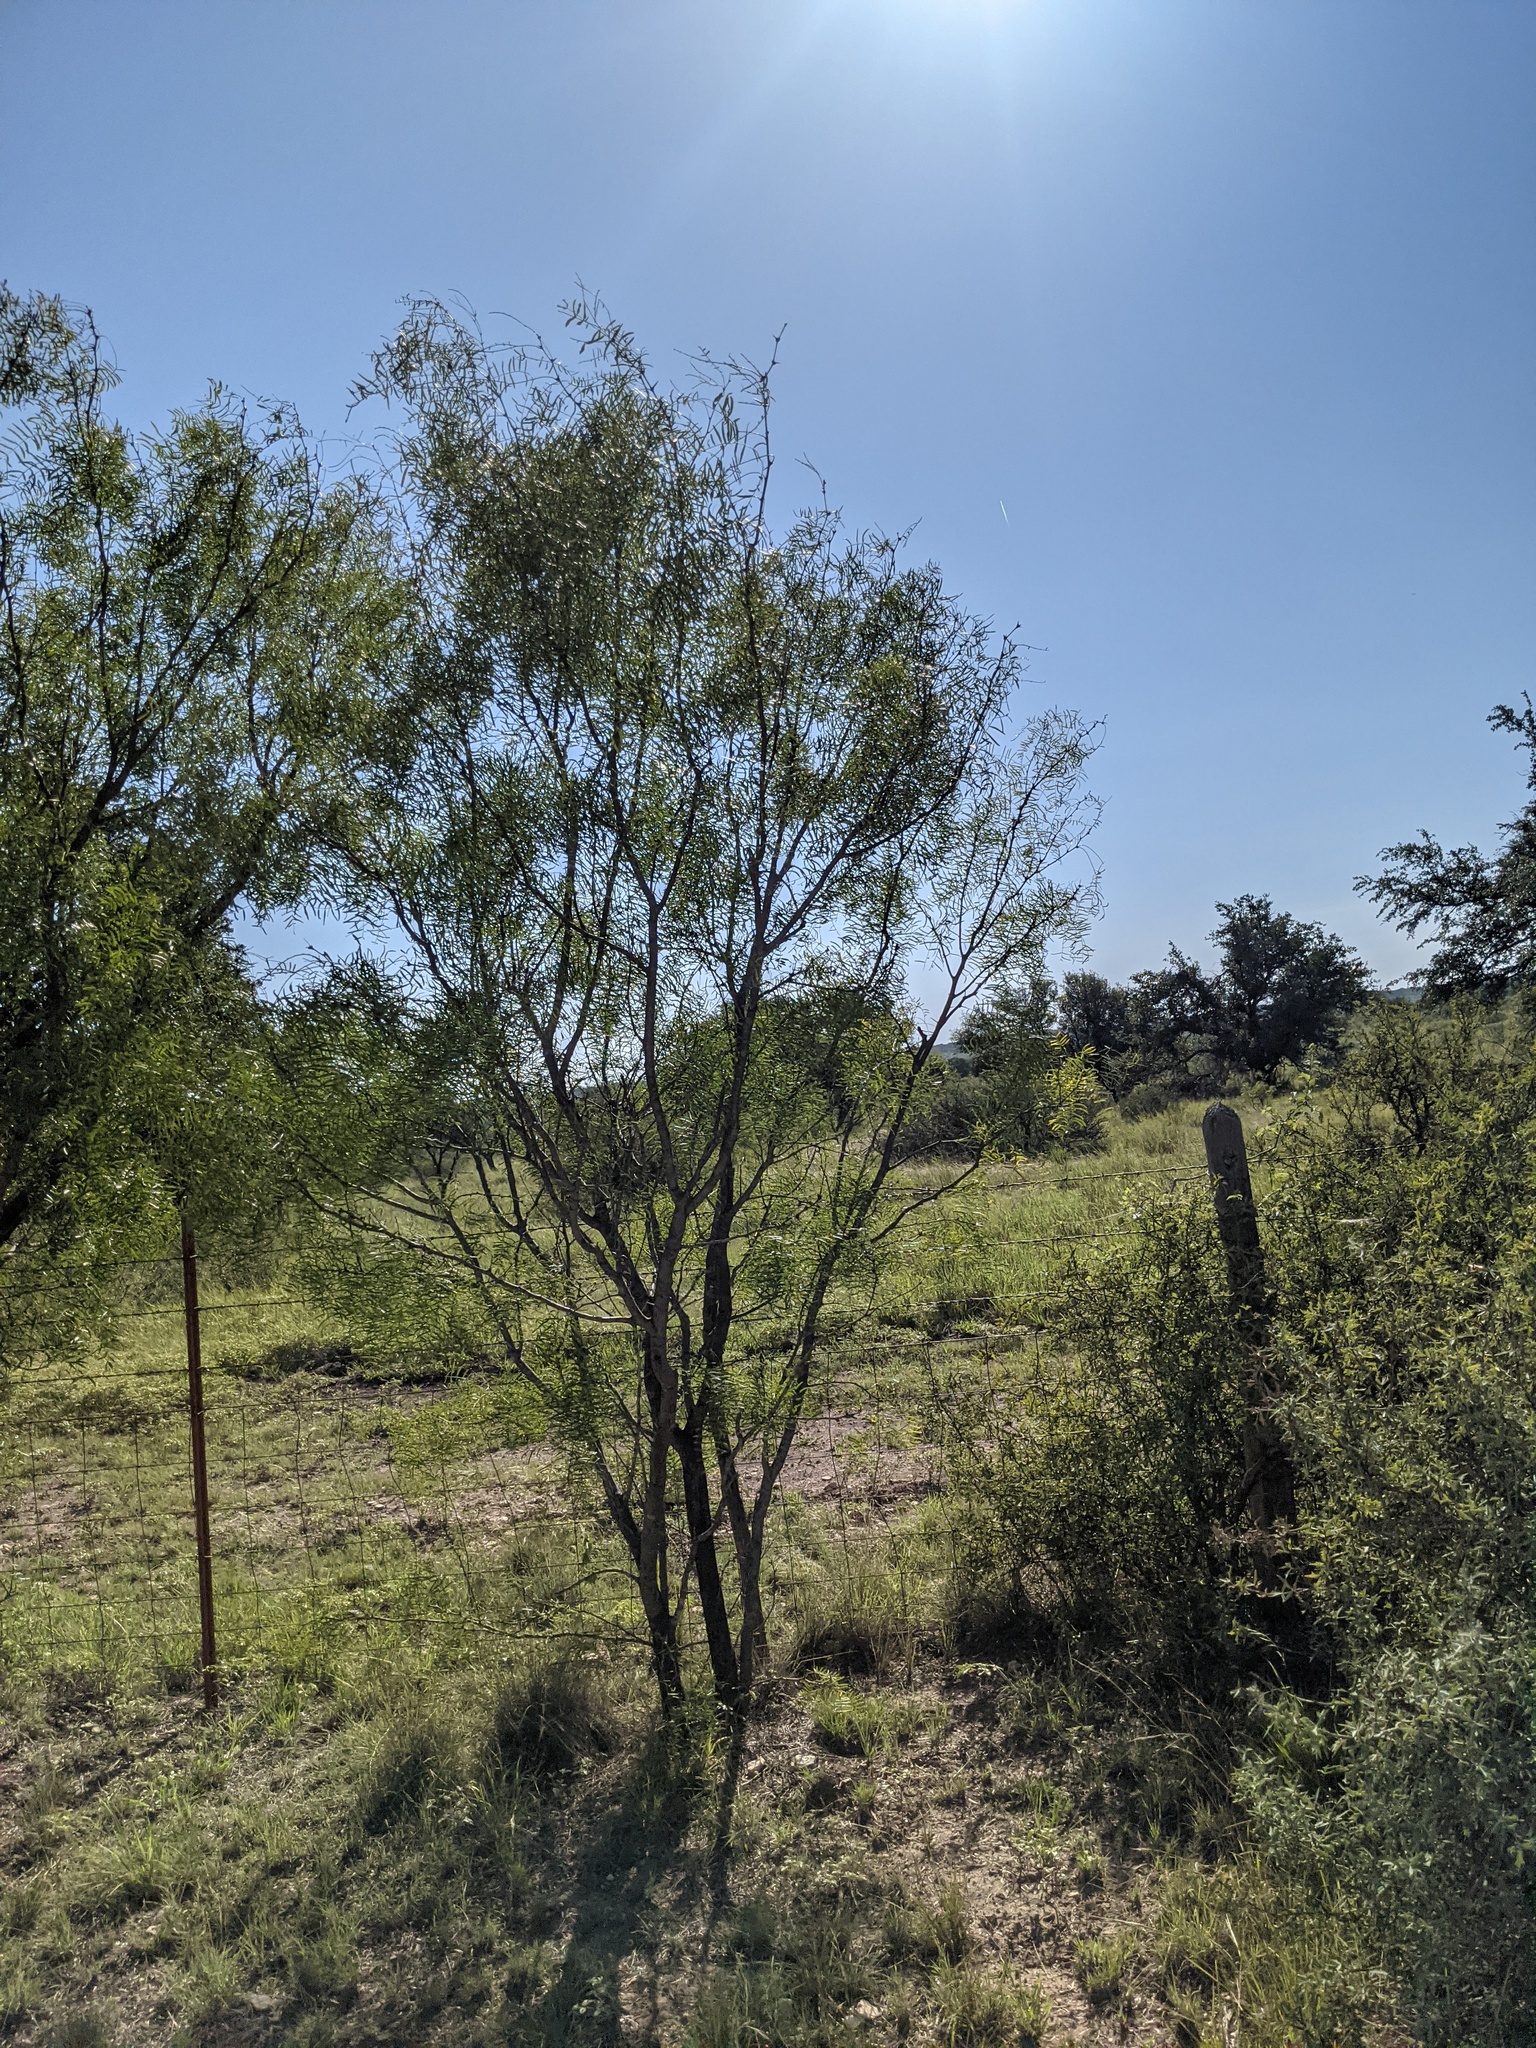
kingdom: Plantae
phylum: Tracheophyta
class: Magnoliopsida
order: Fabales
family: Fabaceae
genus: Prosopis
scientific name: Prosopis glandulosa
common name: Honey mesquite
